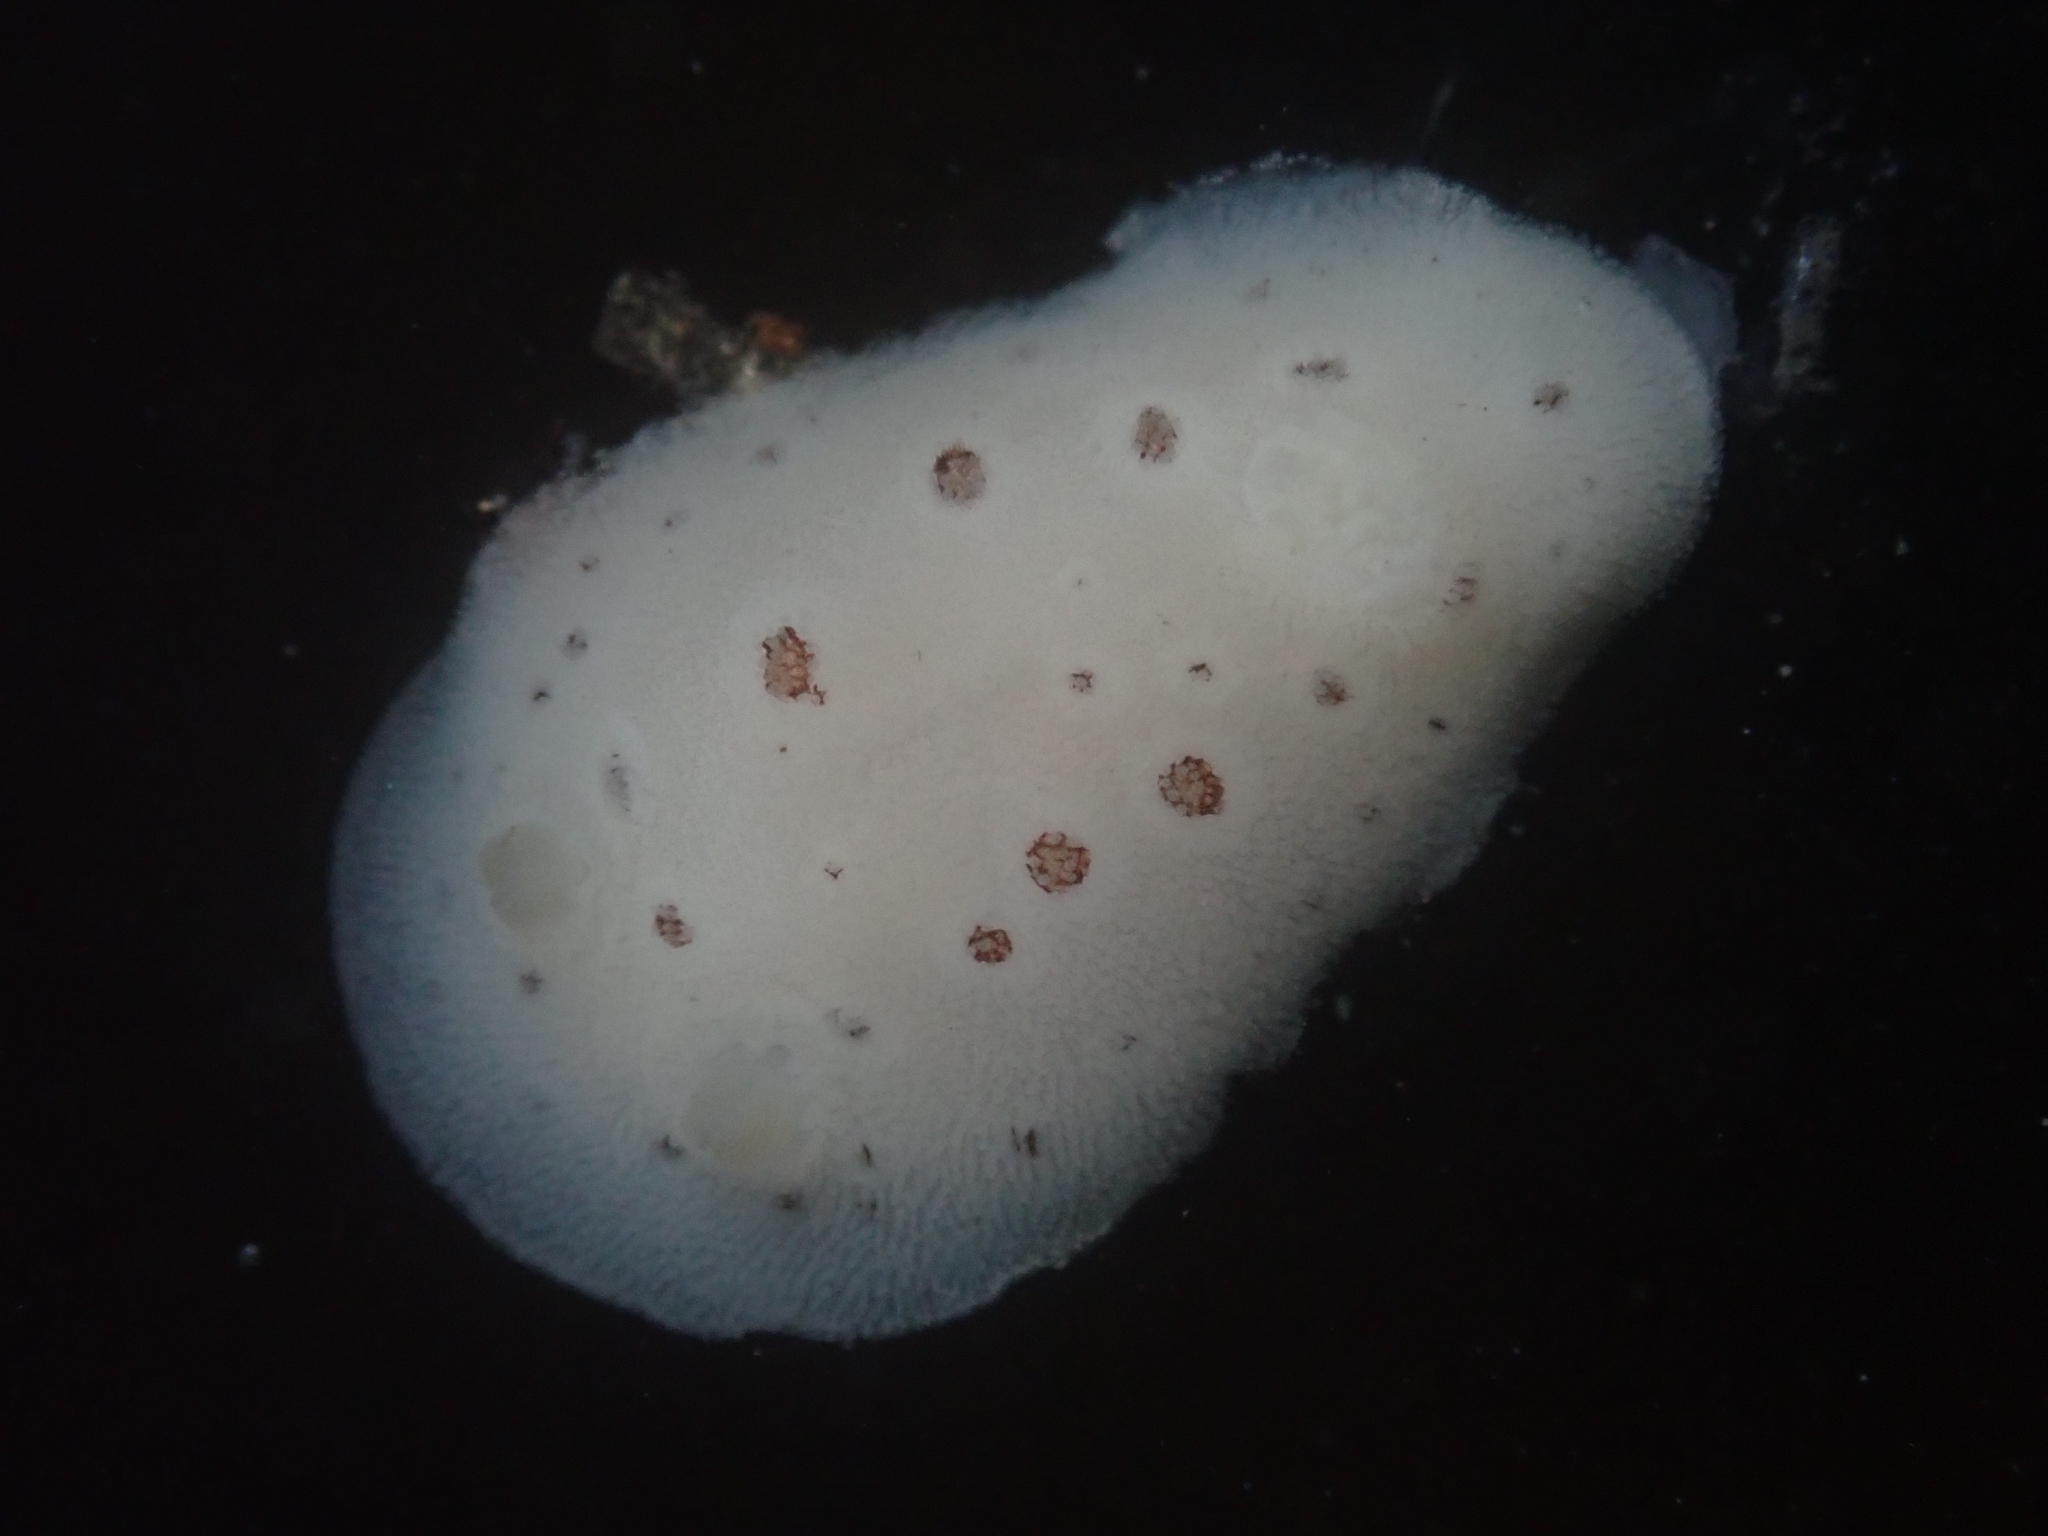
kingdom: Animalia
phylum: Mollusca
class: Gastropoda
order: Nudibranchia
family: Discodorididae
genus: Diaulula
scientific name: Diaulula odonoghuei
